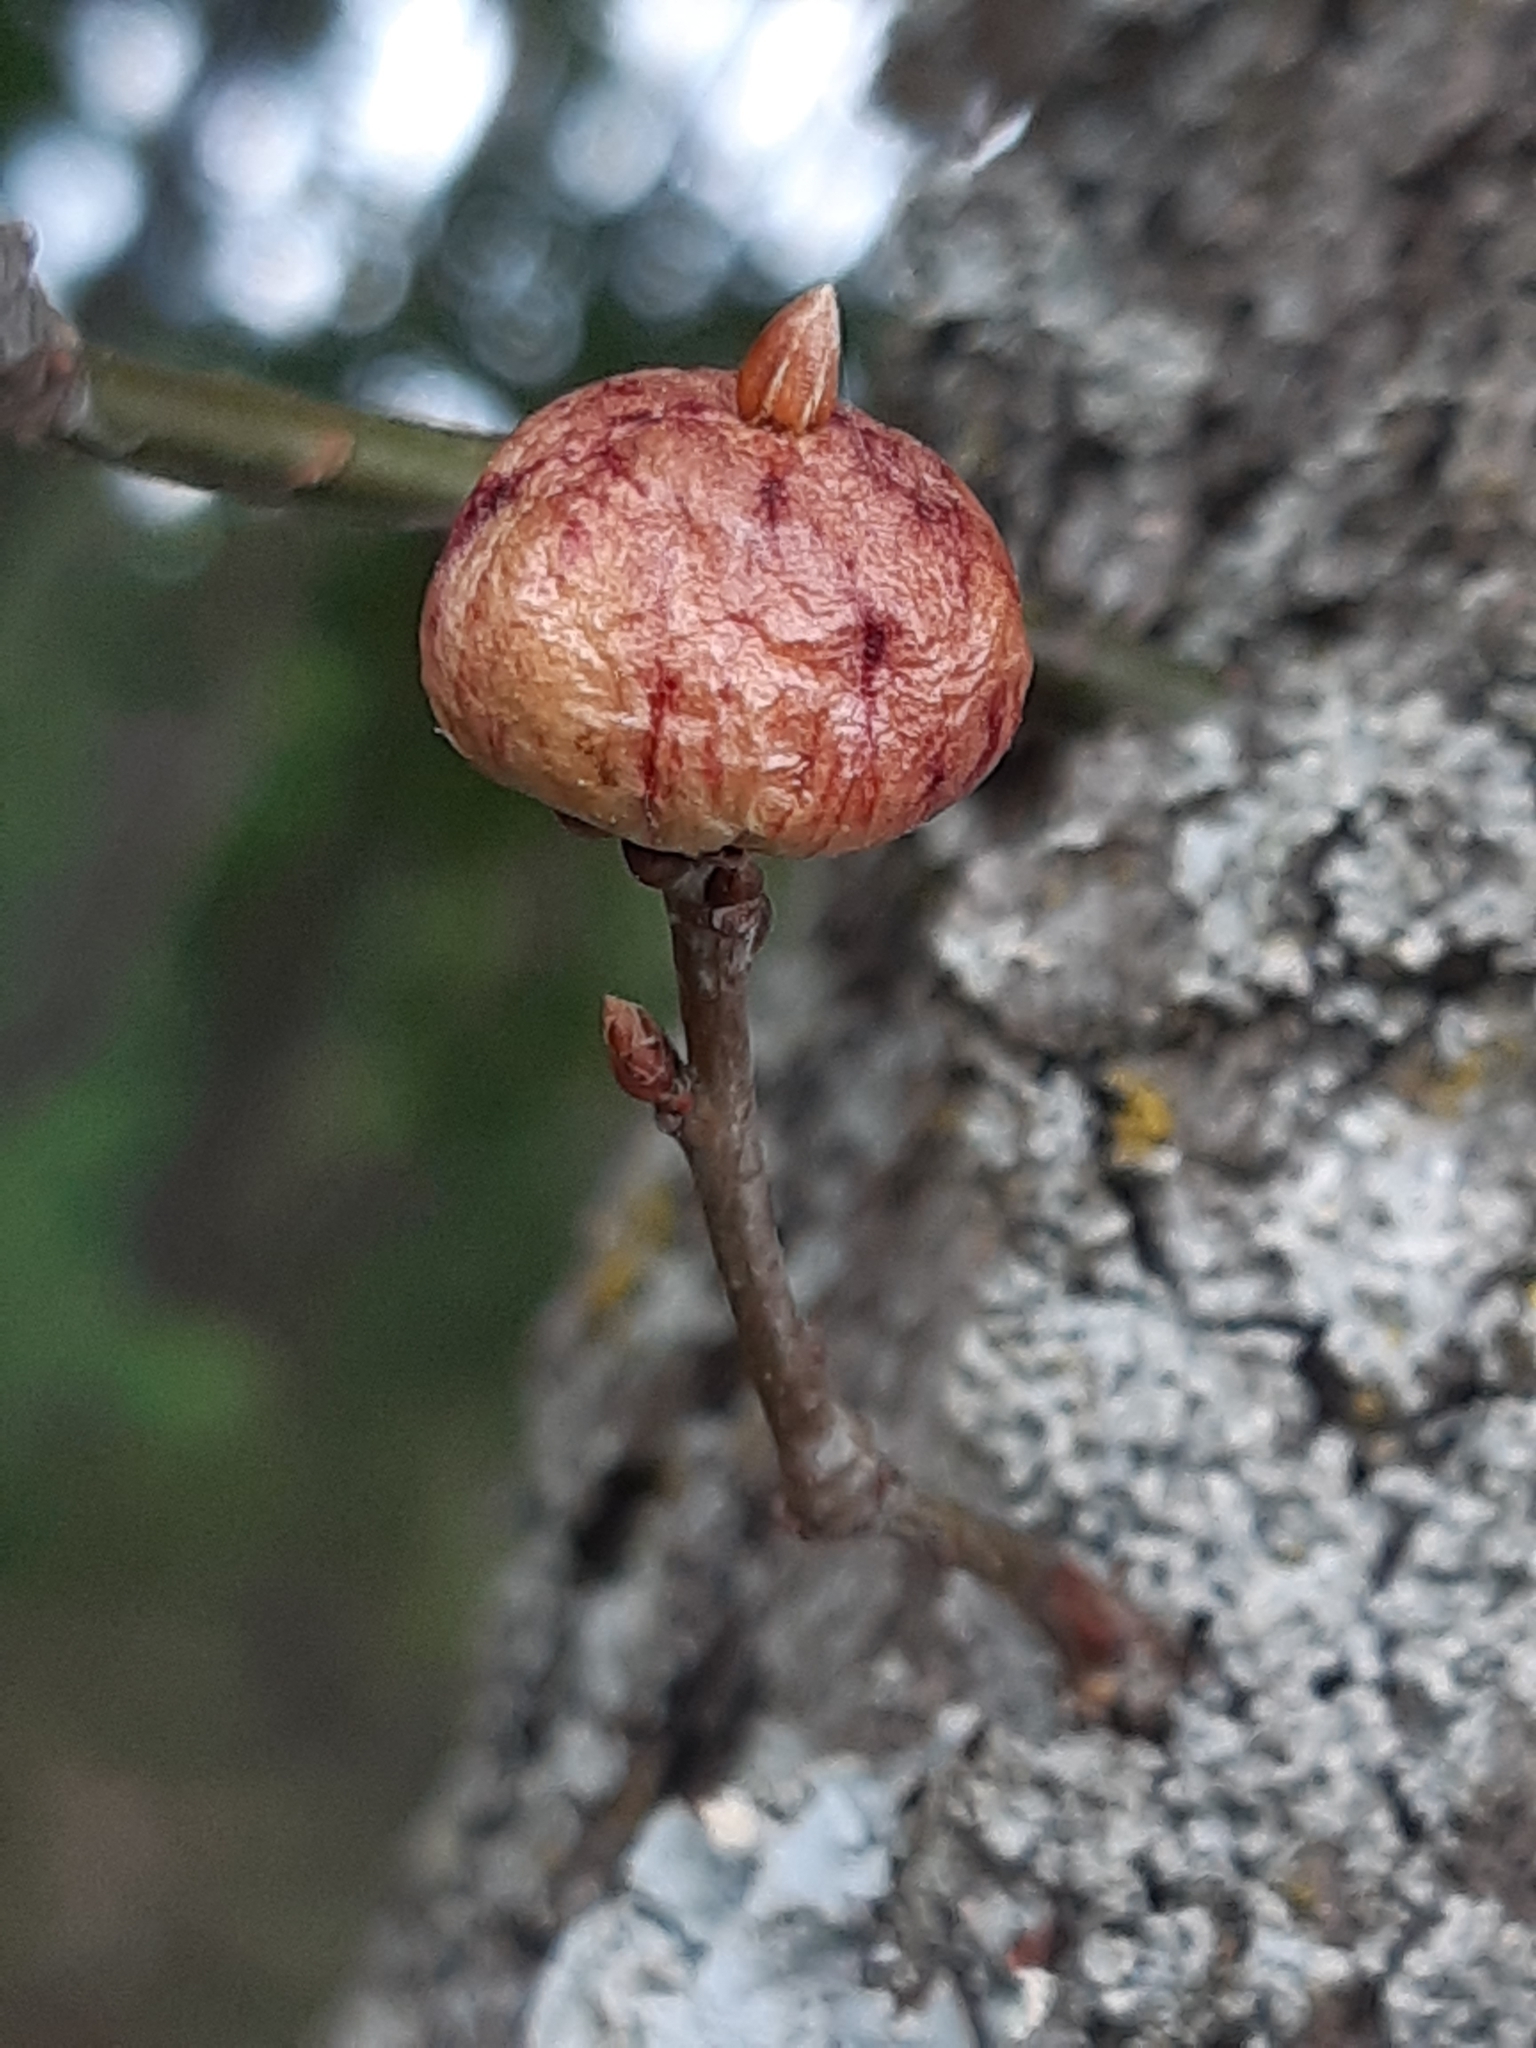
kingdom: Animalia
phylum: Arthropoda
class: Insecta
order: Hymenoptera
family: Cynipidae
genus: Biorhiza
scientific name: Biorhiza pallida
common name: Oak apple
